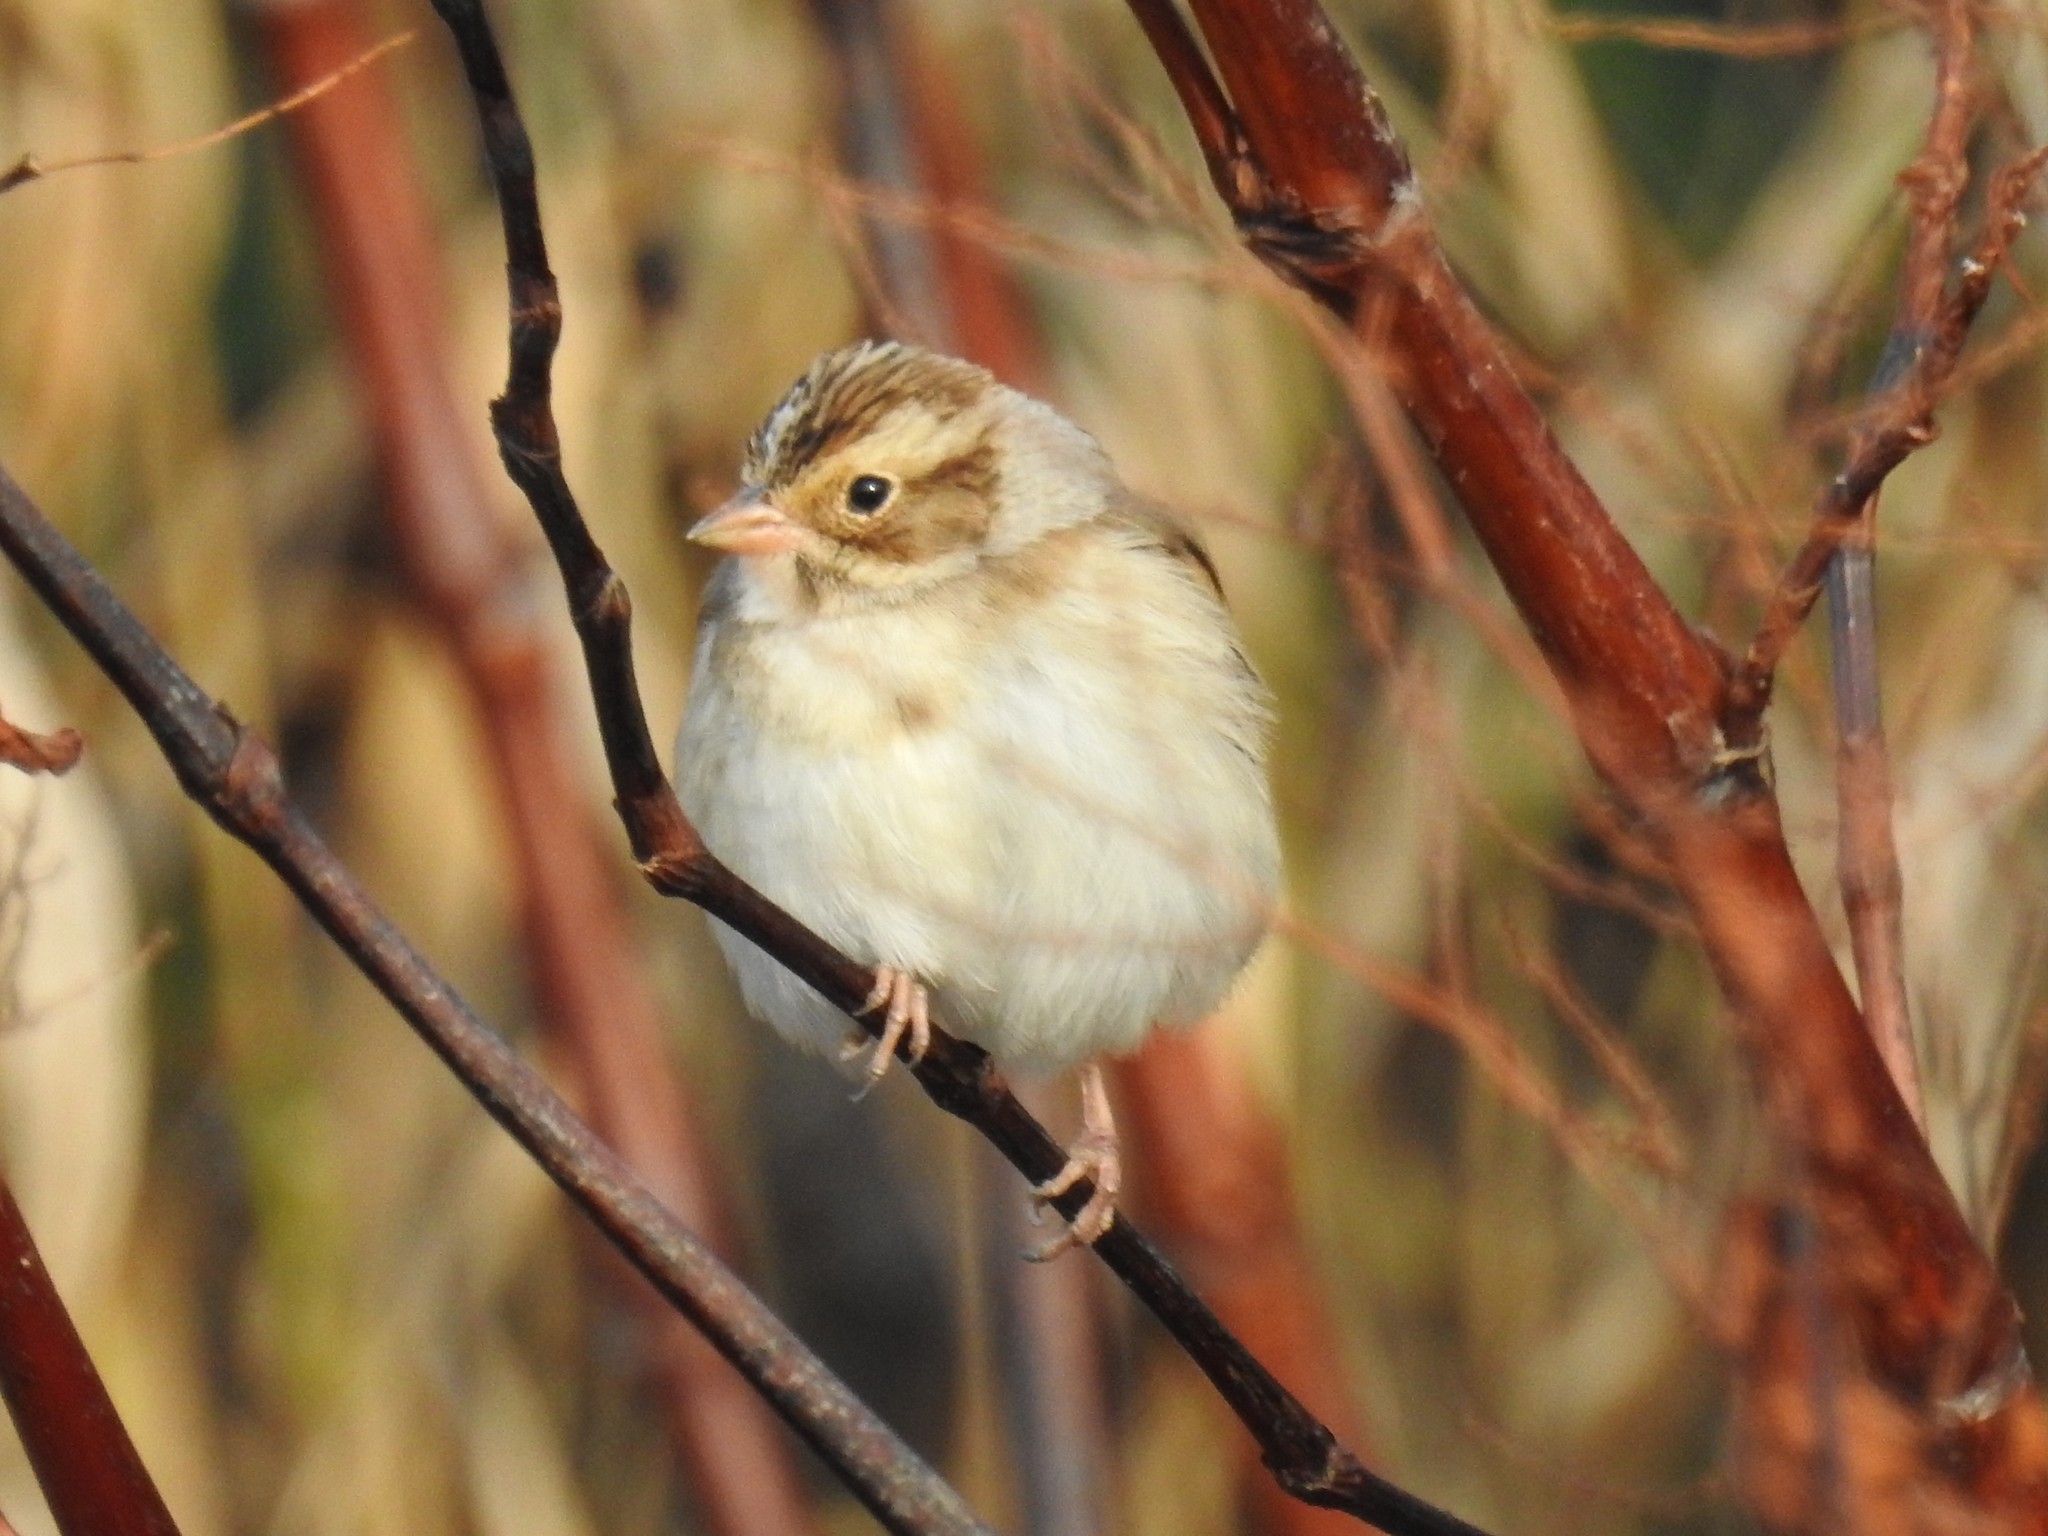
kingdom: Animalia
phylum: Chordata
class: Aves
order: Passeriformes
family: Passerellidae
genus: Spizella
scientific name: Spizella pallida
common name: Clay-colored sparrow
